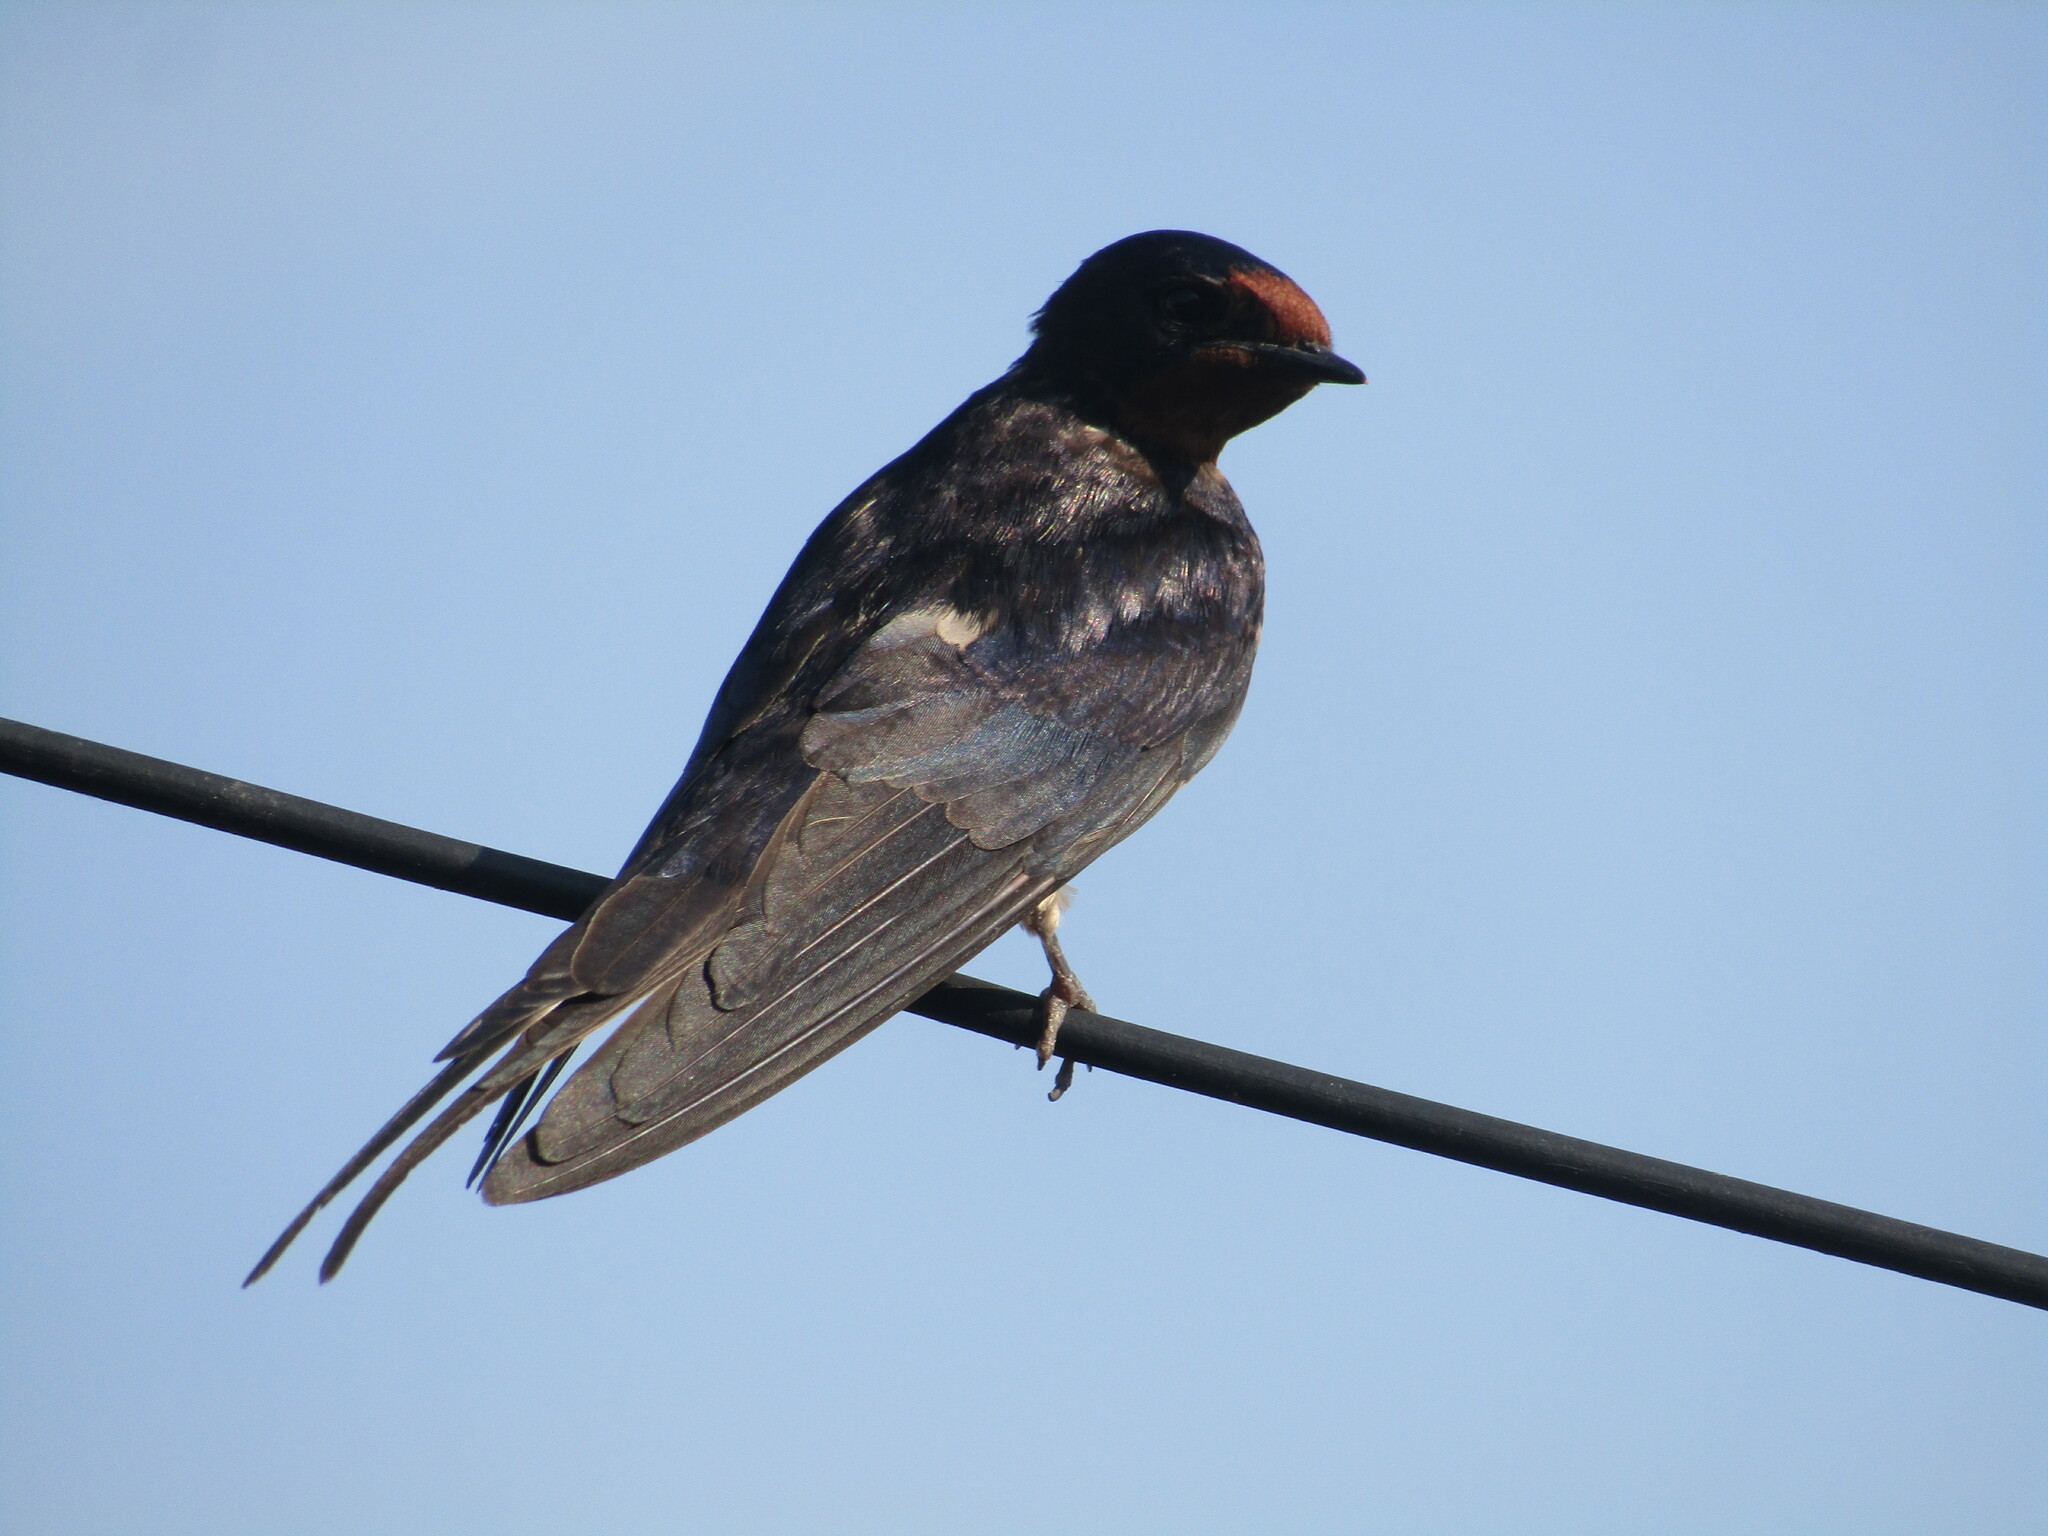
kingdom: Animalia
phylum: Chordata
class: Aves
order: Passeriformes
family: Hirundinidae
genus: Hirundo
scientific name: Hirundo rustica
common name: Barn swallow
